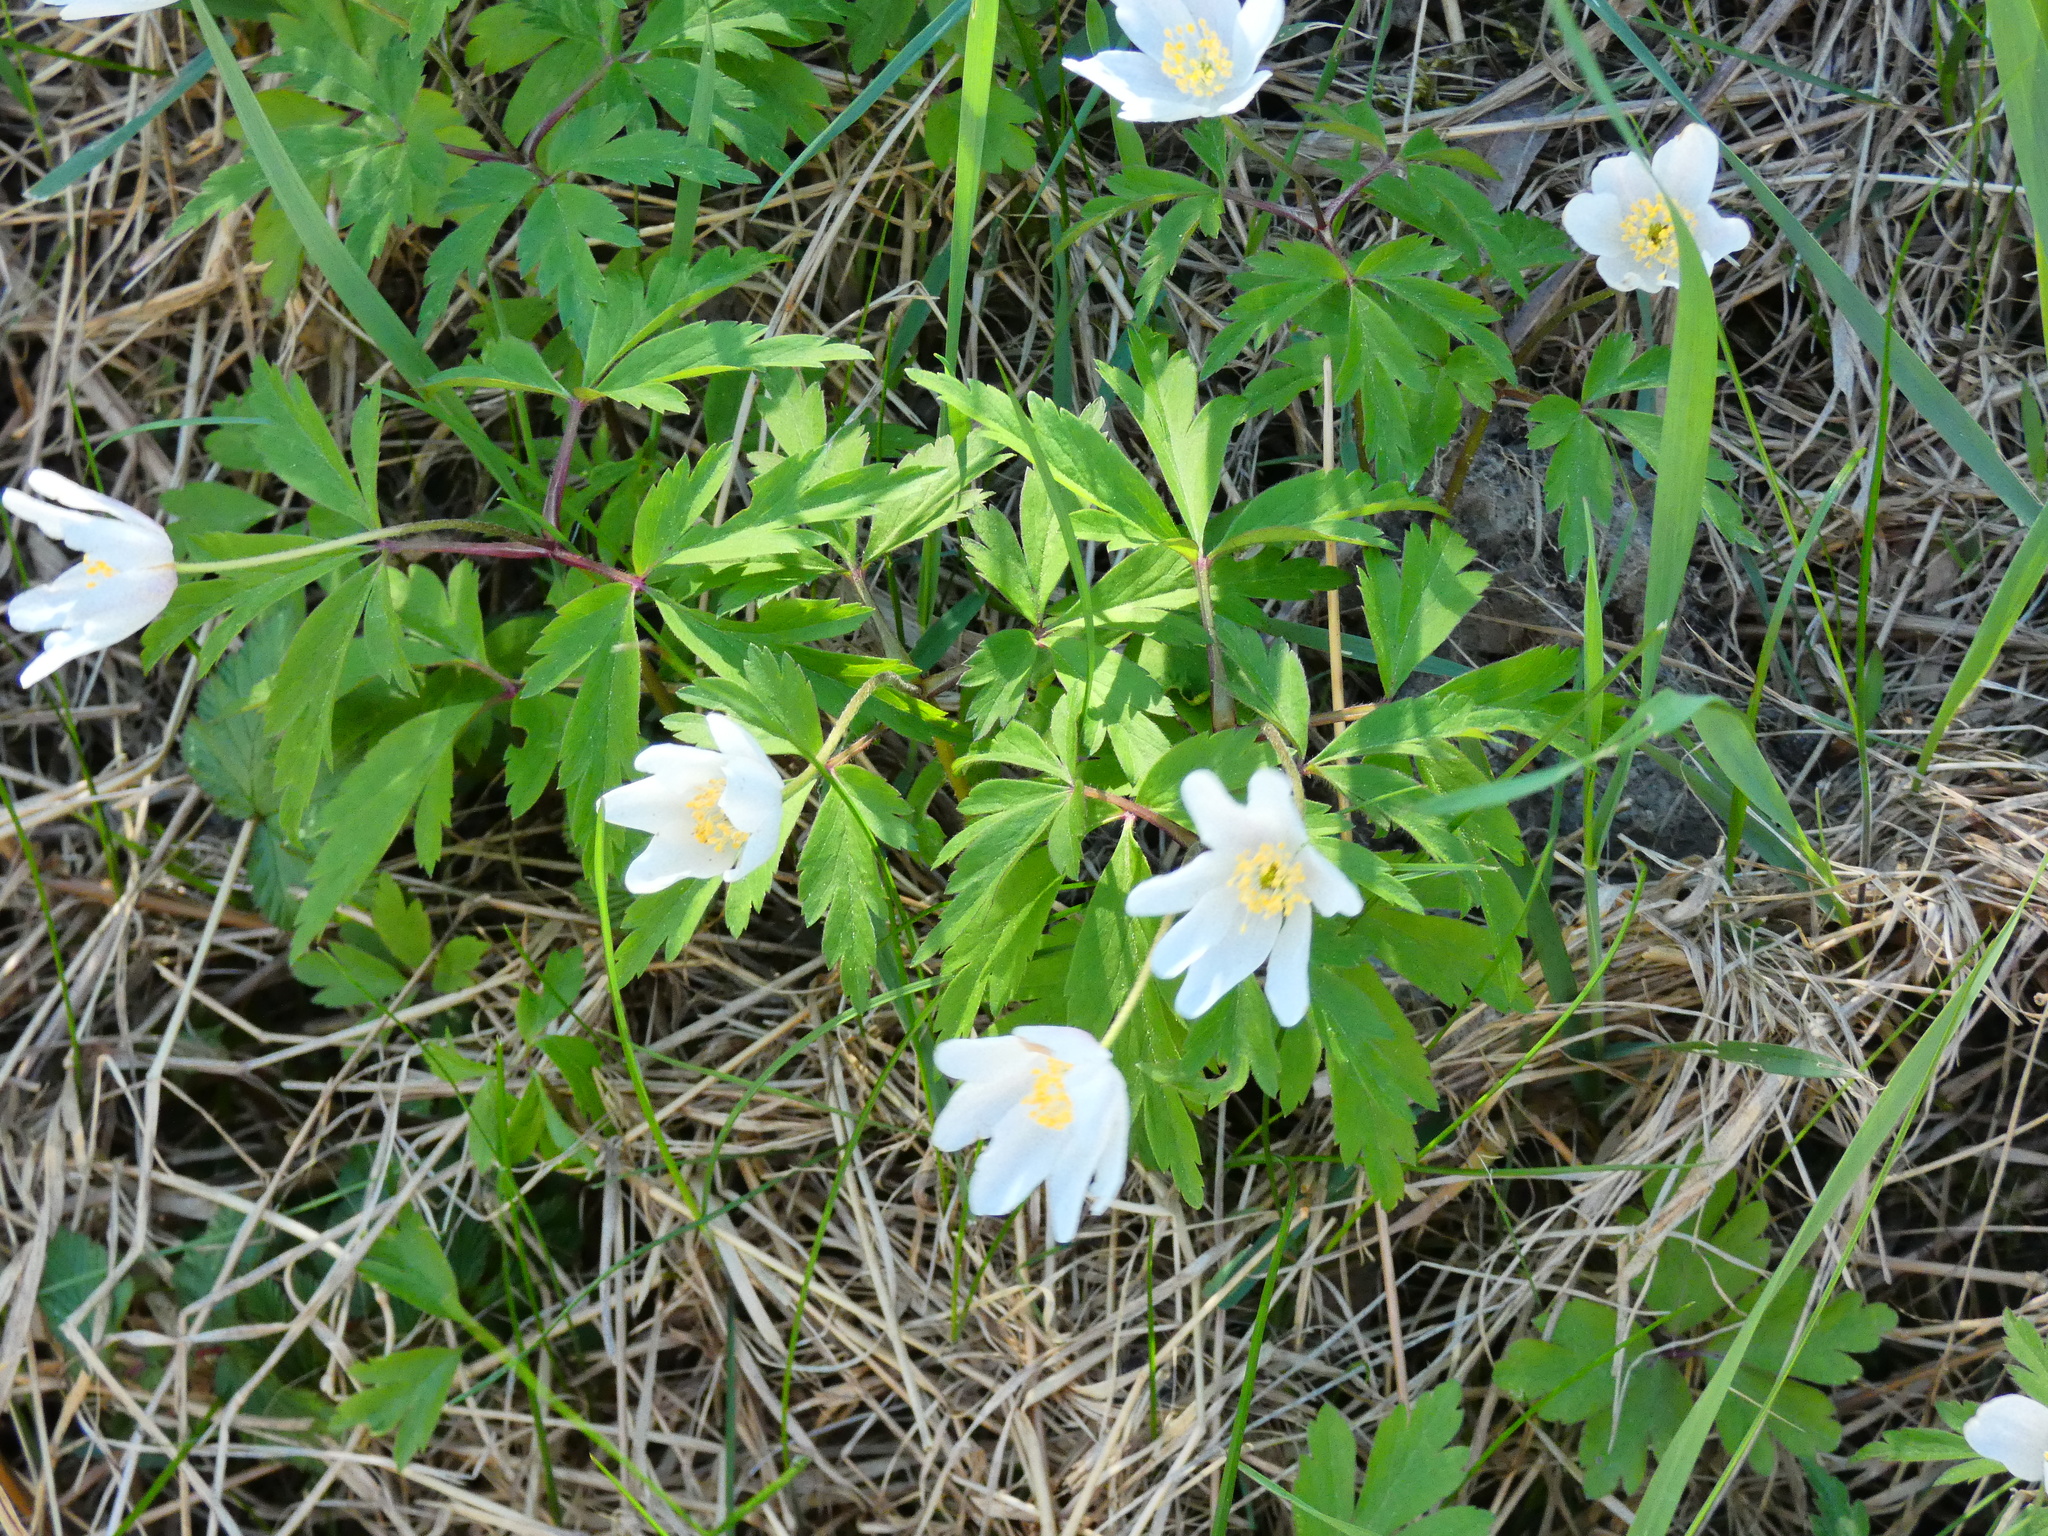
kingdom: Plantae
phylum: Tracheophyta
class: Magnoliopsida
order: Ranunculales
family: Ranunculaceae
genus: Anemone
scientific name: Anemone nemorosa
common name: Wood anemone
